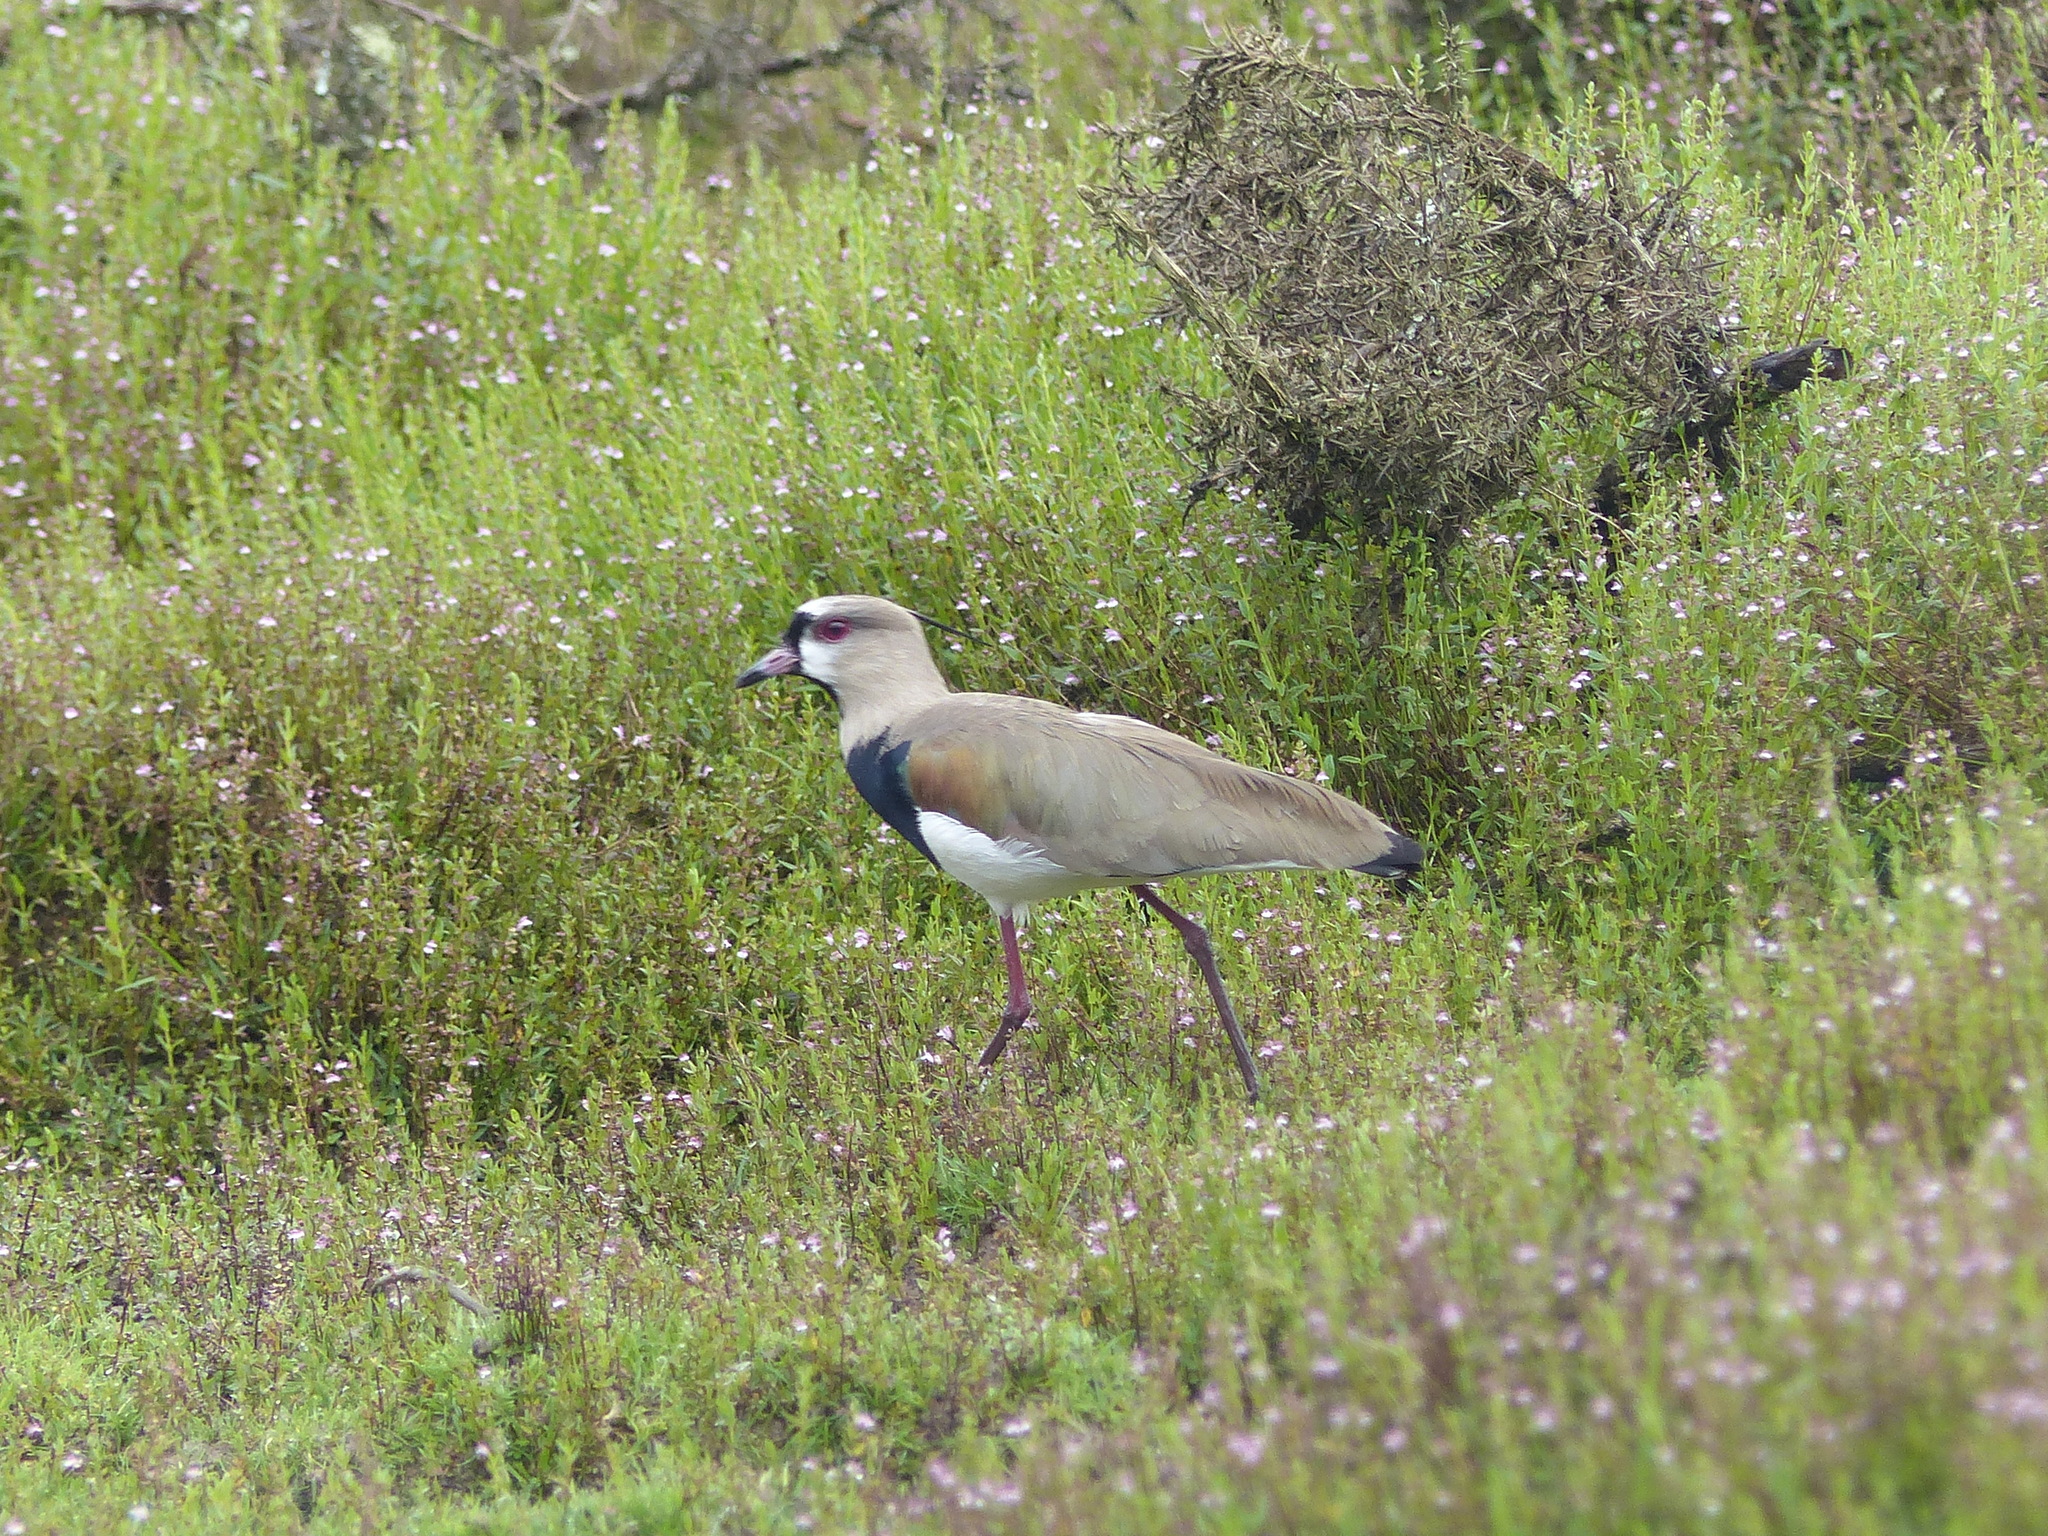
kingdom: Animalia
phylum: Chordata
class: Aves
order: Charadriiformes
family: Charadriidae
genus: Vanellus
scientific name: Vanellus chilensis
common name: Southern lapwing
